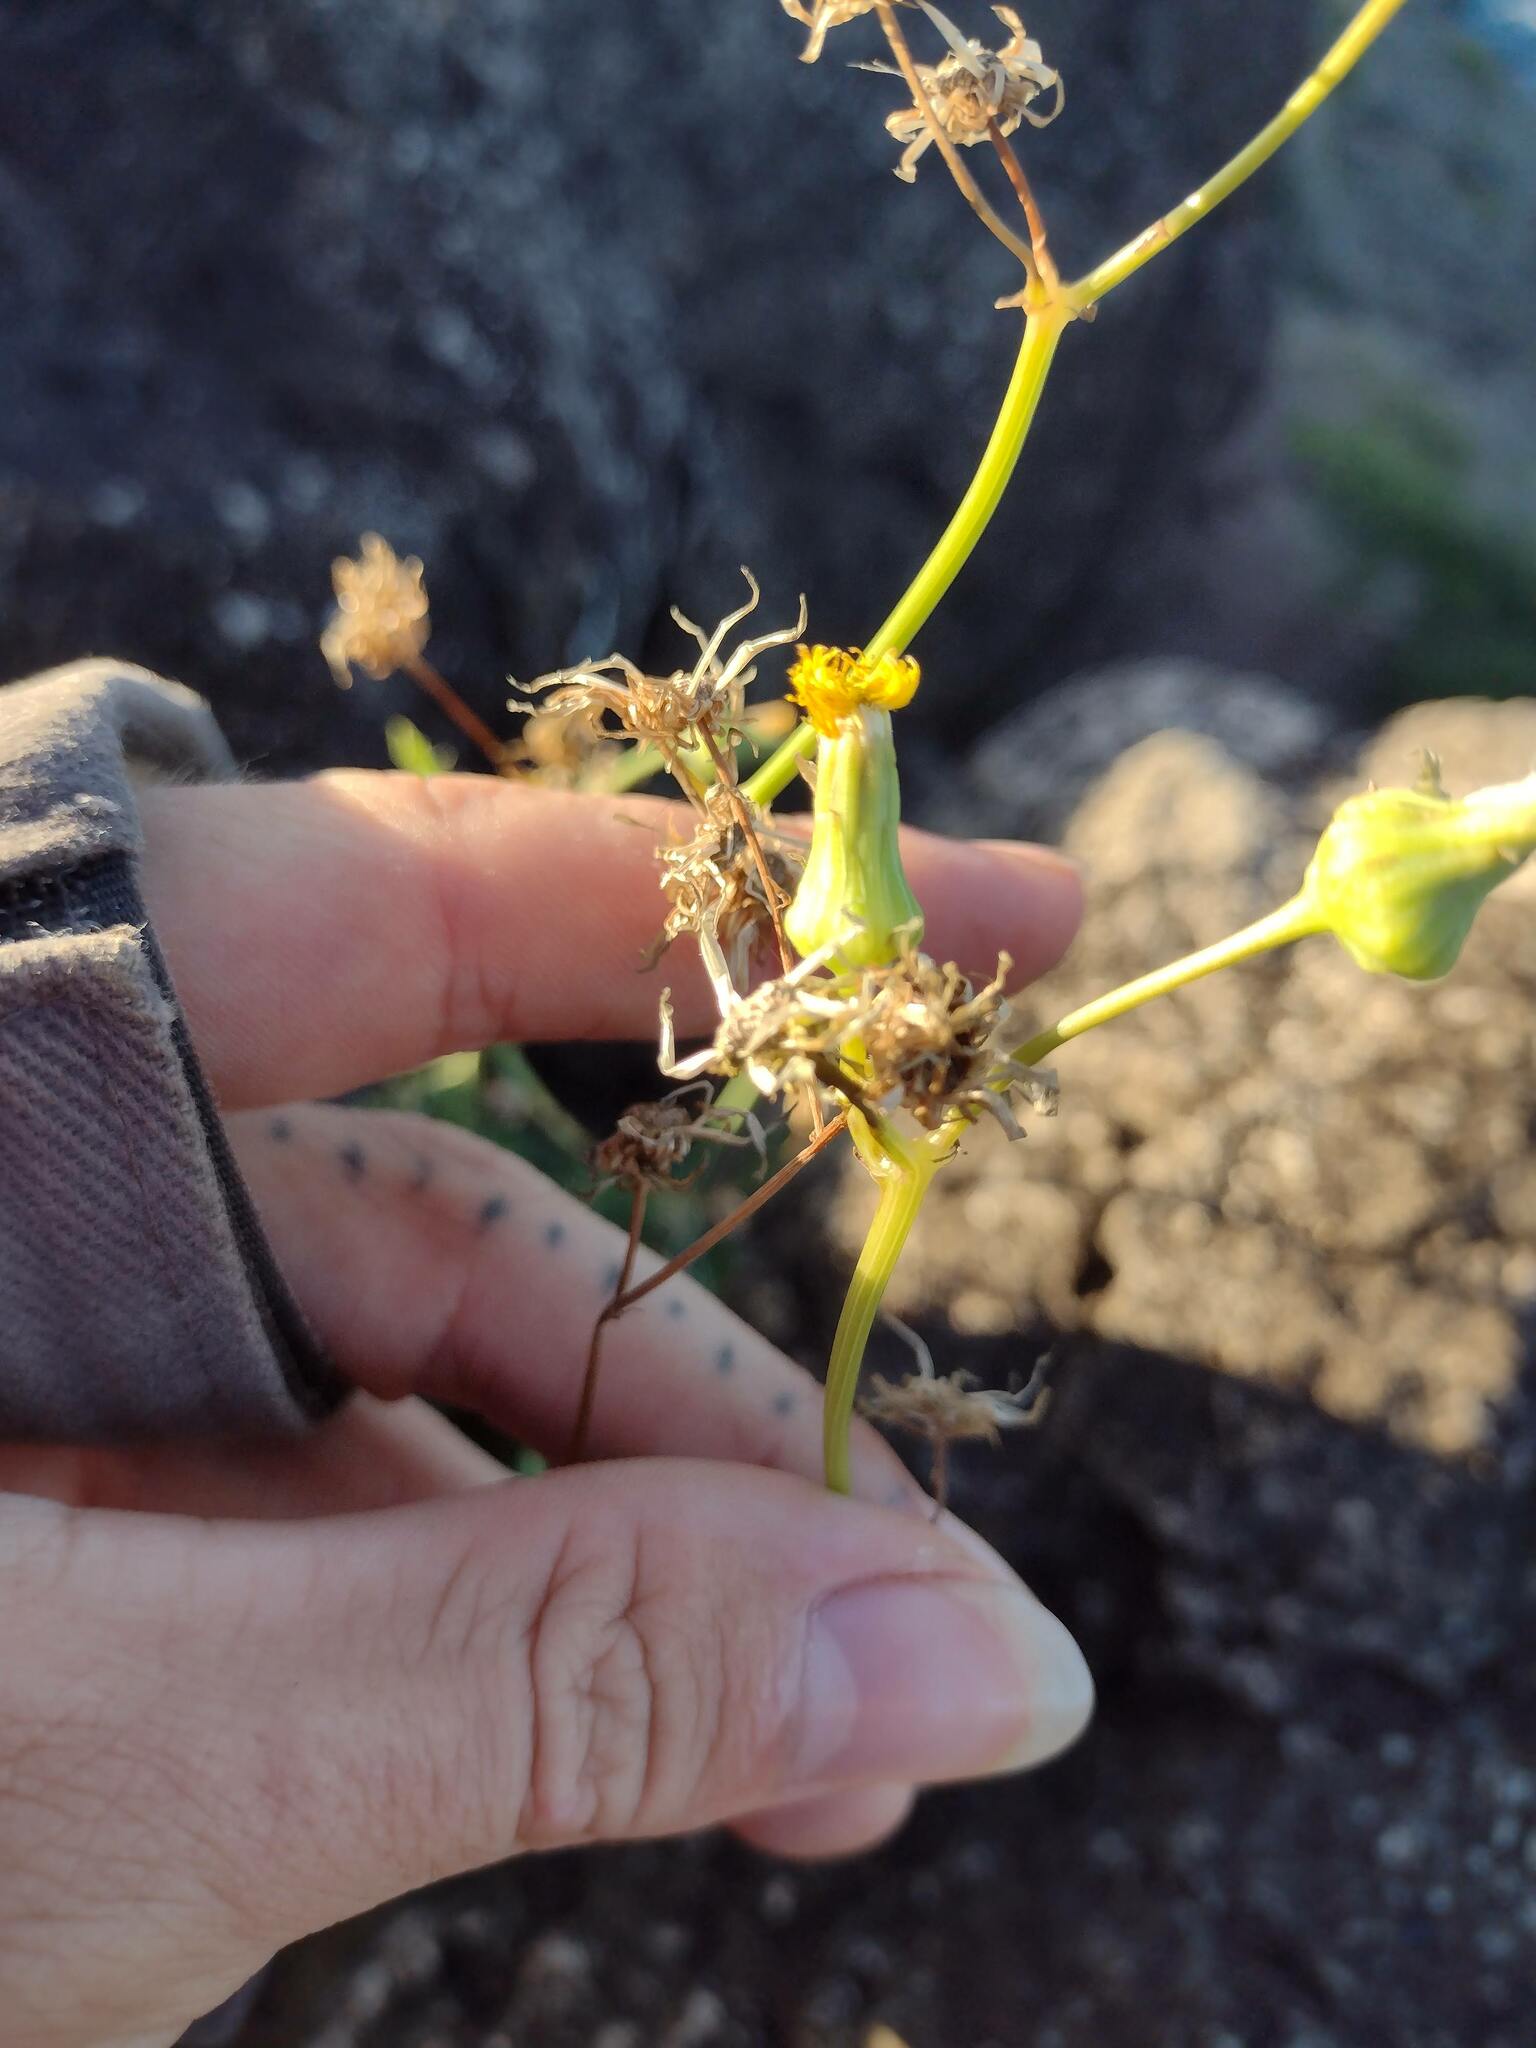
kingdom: Plantae
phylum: Tracheophyta
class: Magnoliopsida
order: Asterales
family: Asteraceae
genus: Sonchus
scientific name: Sonchus oleraceus
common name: Common sowthistle
